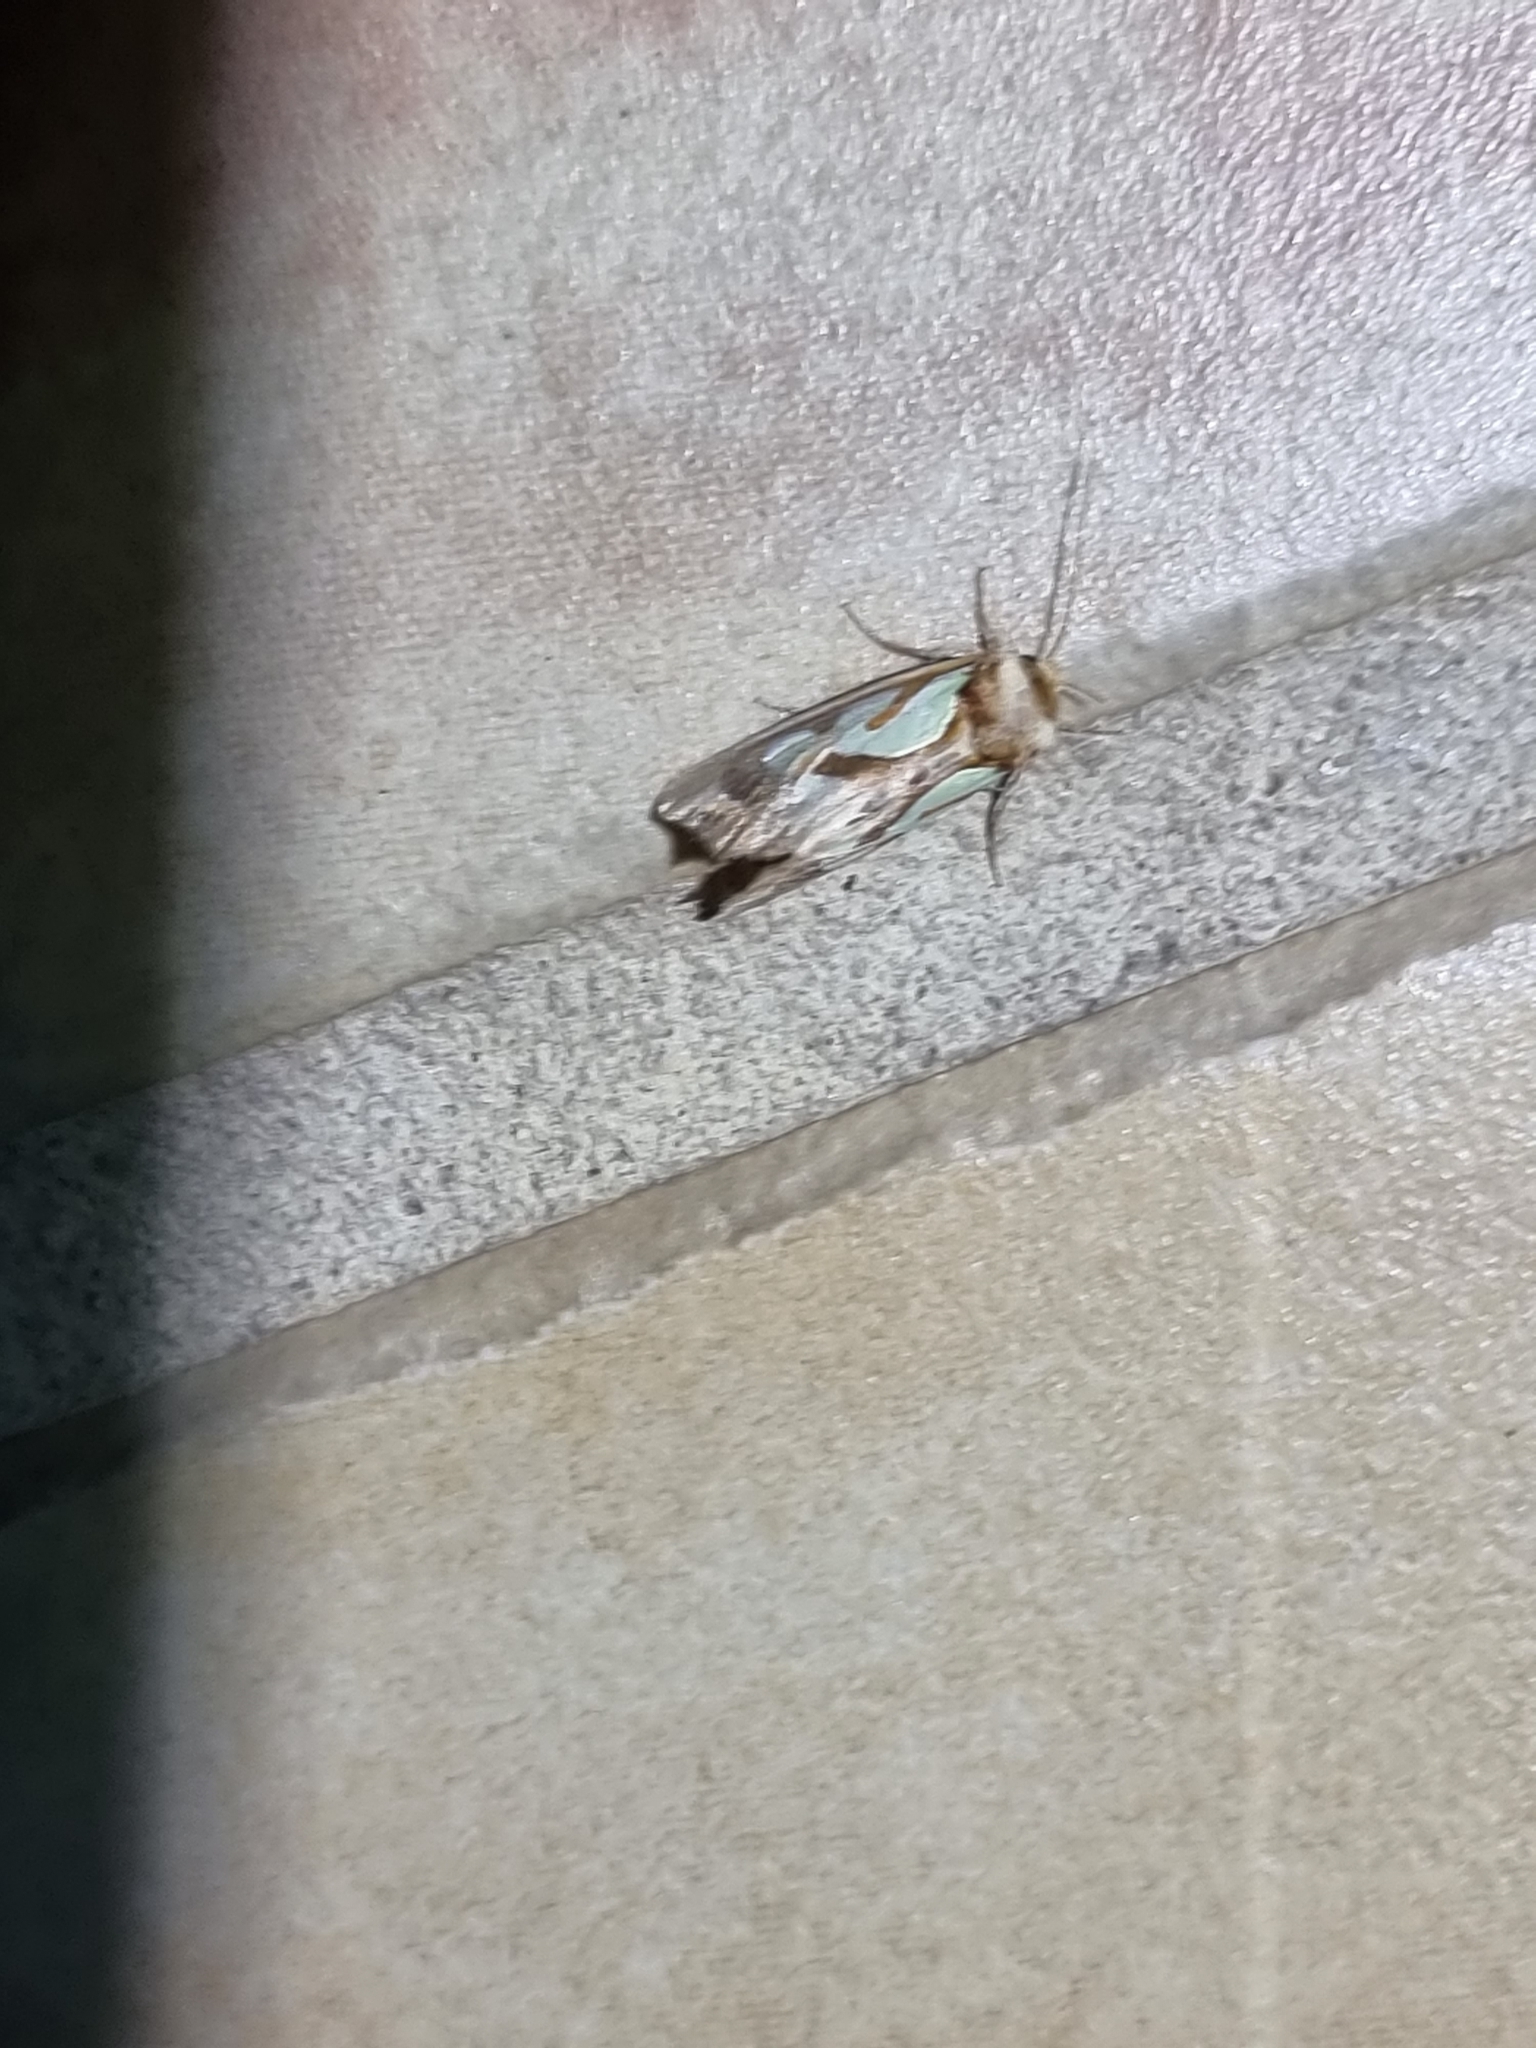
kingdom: Animalia
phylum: Arthropoda
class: Insecta
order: Lepidoptera
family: Noctuidae
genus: Cosmodes
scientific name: Cosmodes elegans
